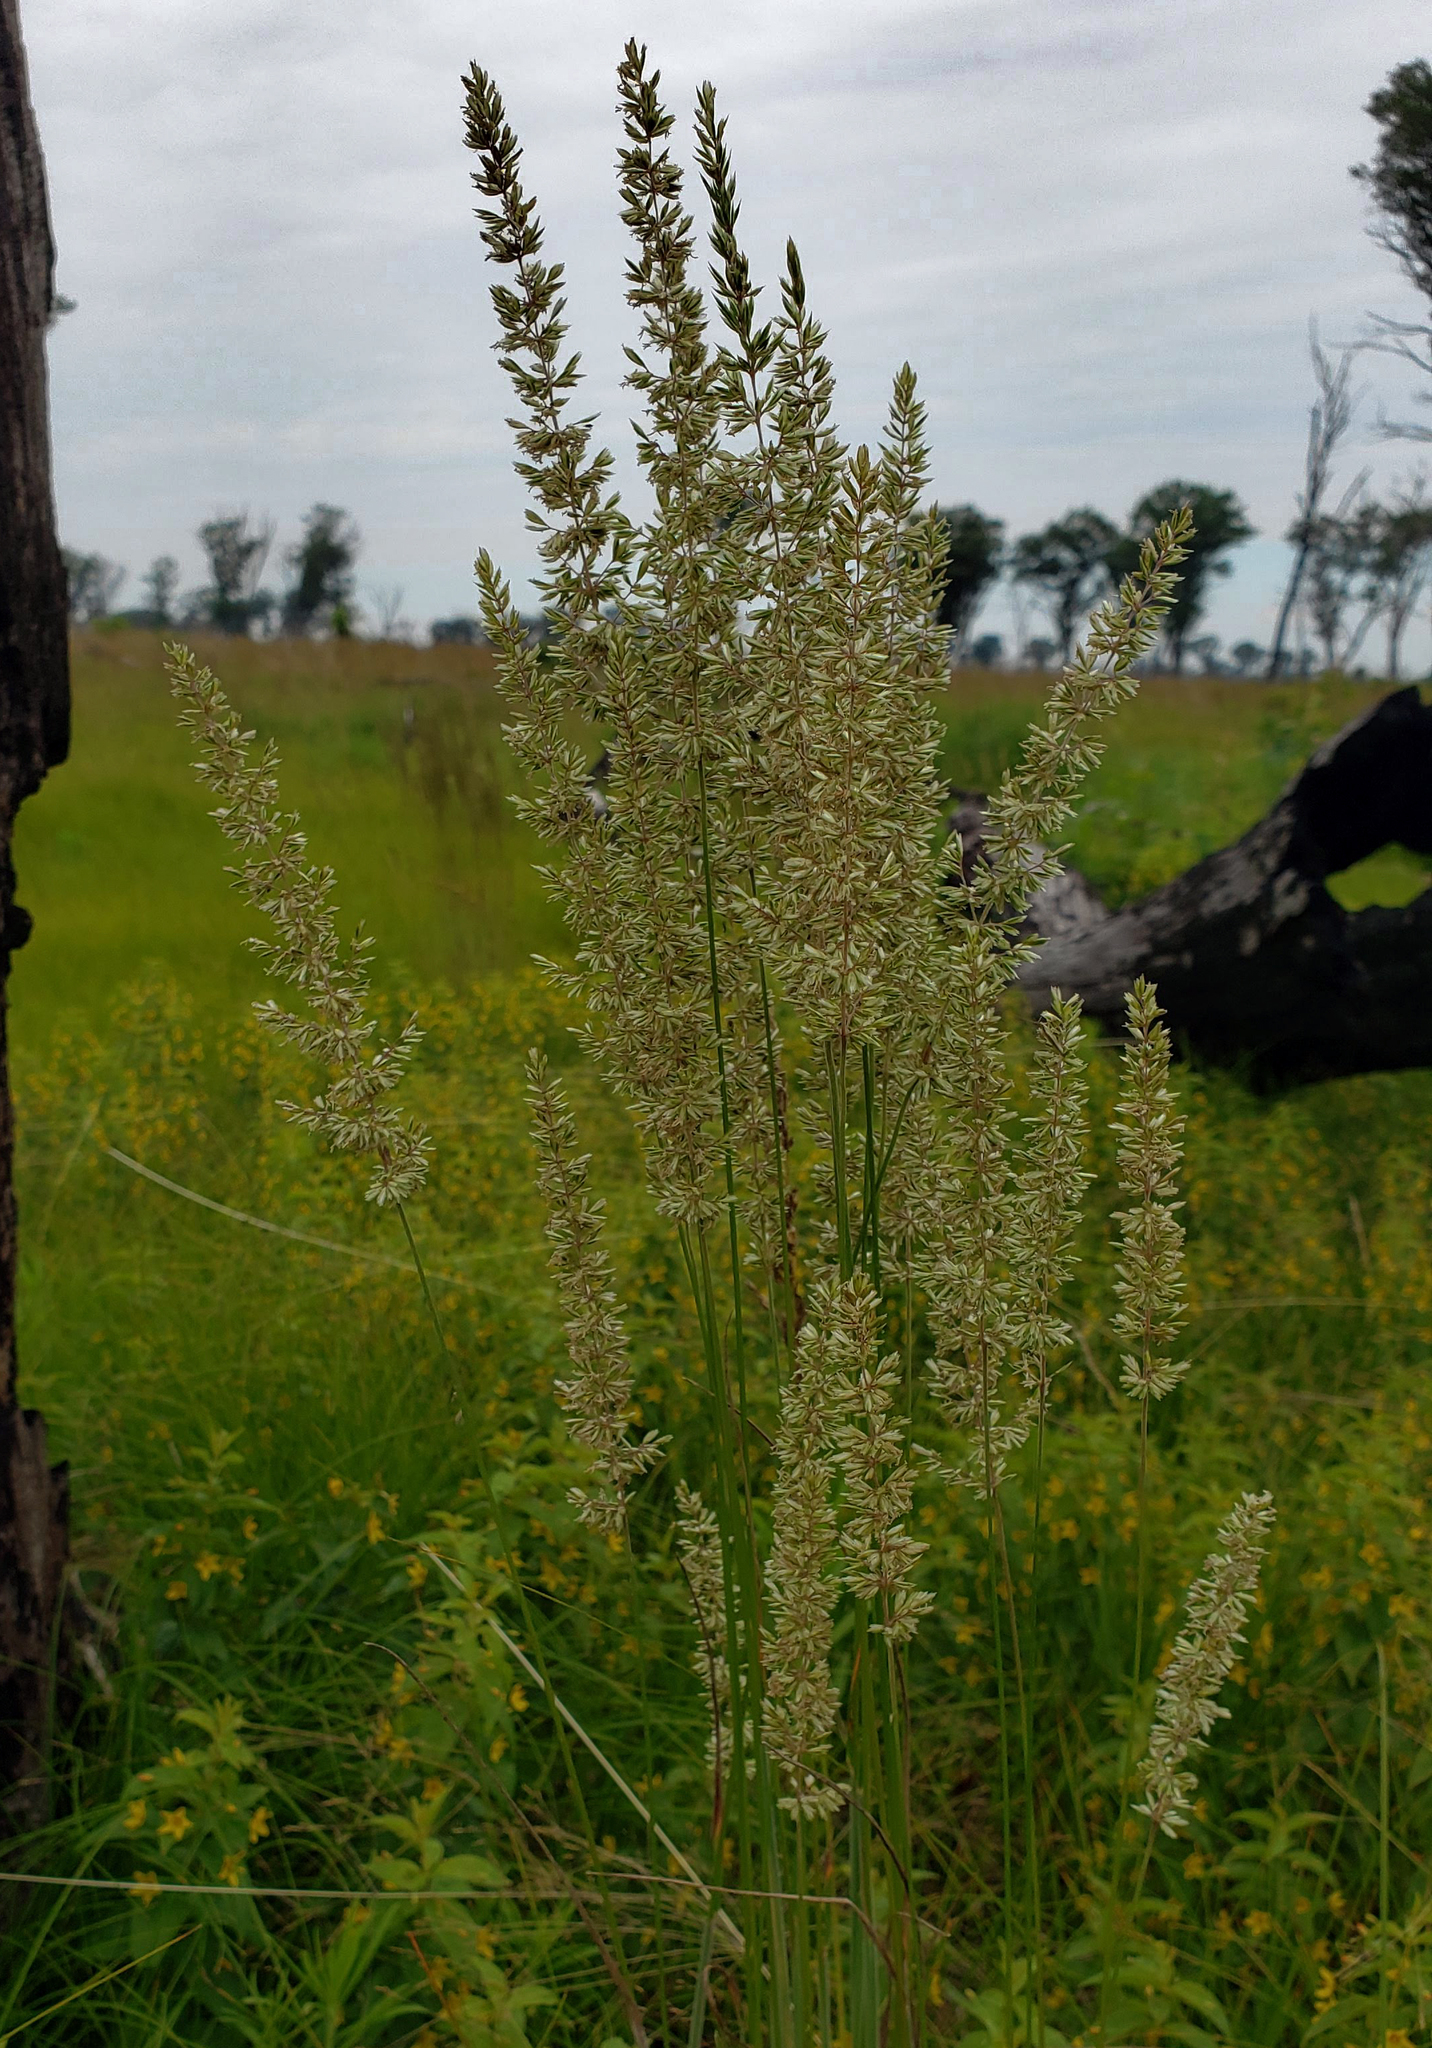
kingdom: Plantae
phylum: Tracheophyta
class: Liliopsida
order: Poales
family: Poaceae
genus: Koeleria
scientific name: Koeleria macrantha
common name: Crested hair-grass
